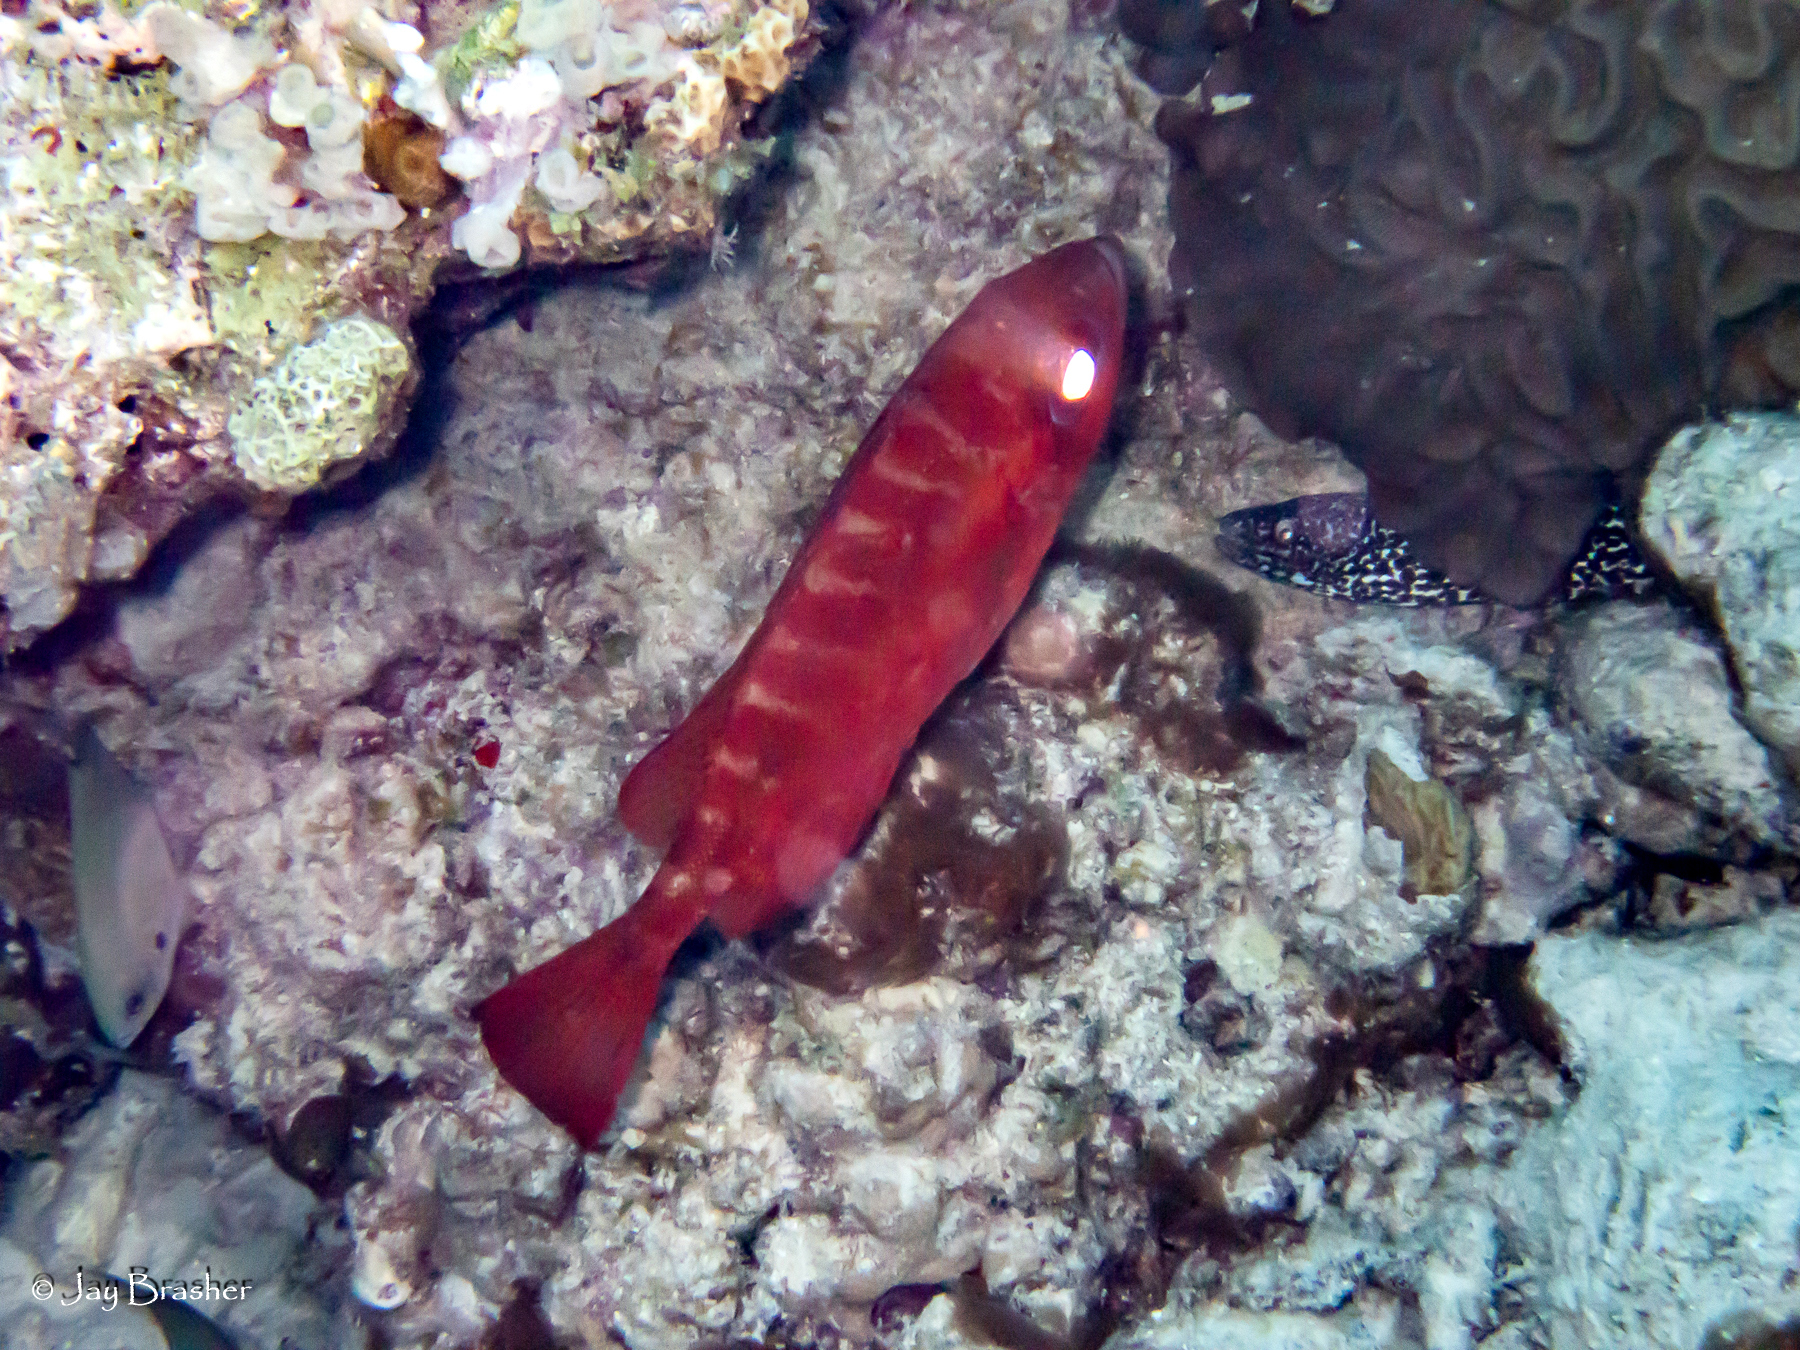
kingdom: Animalia
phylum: Chordata
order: Anguilliformes
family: Muraenidae
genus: Gymnothorax
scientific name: Gymnothorax moringa
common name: Spotted moray
